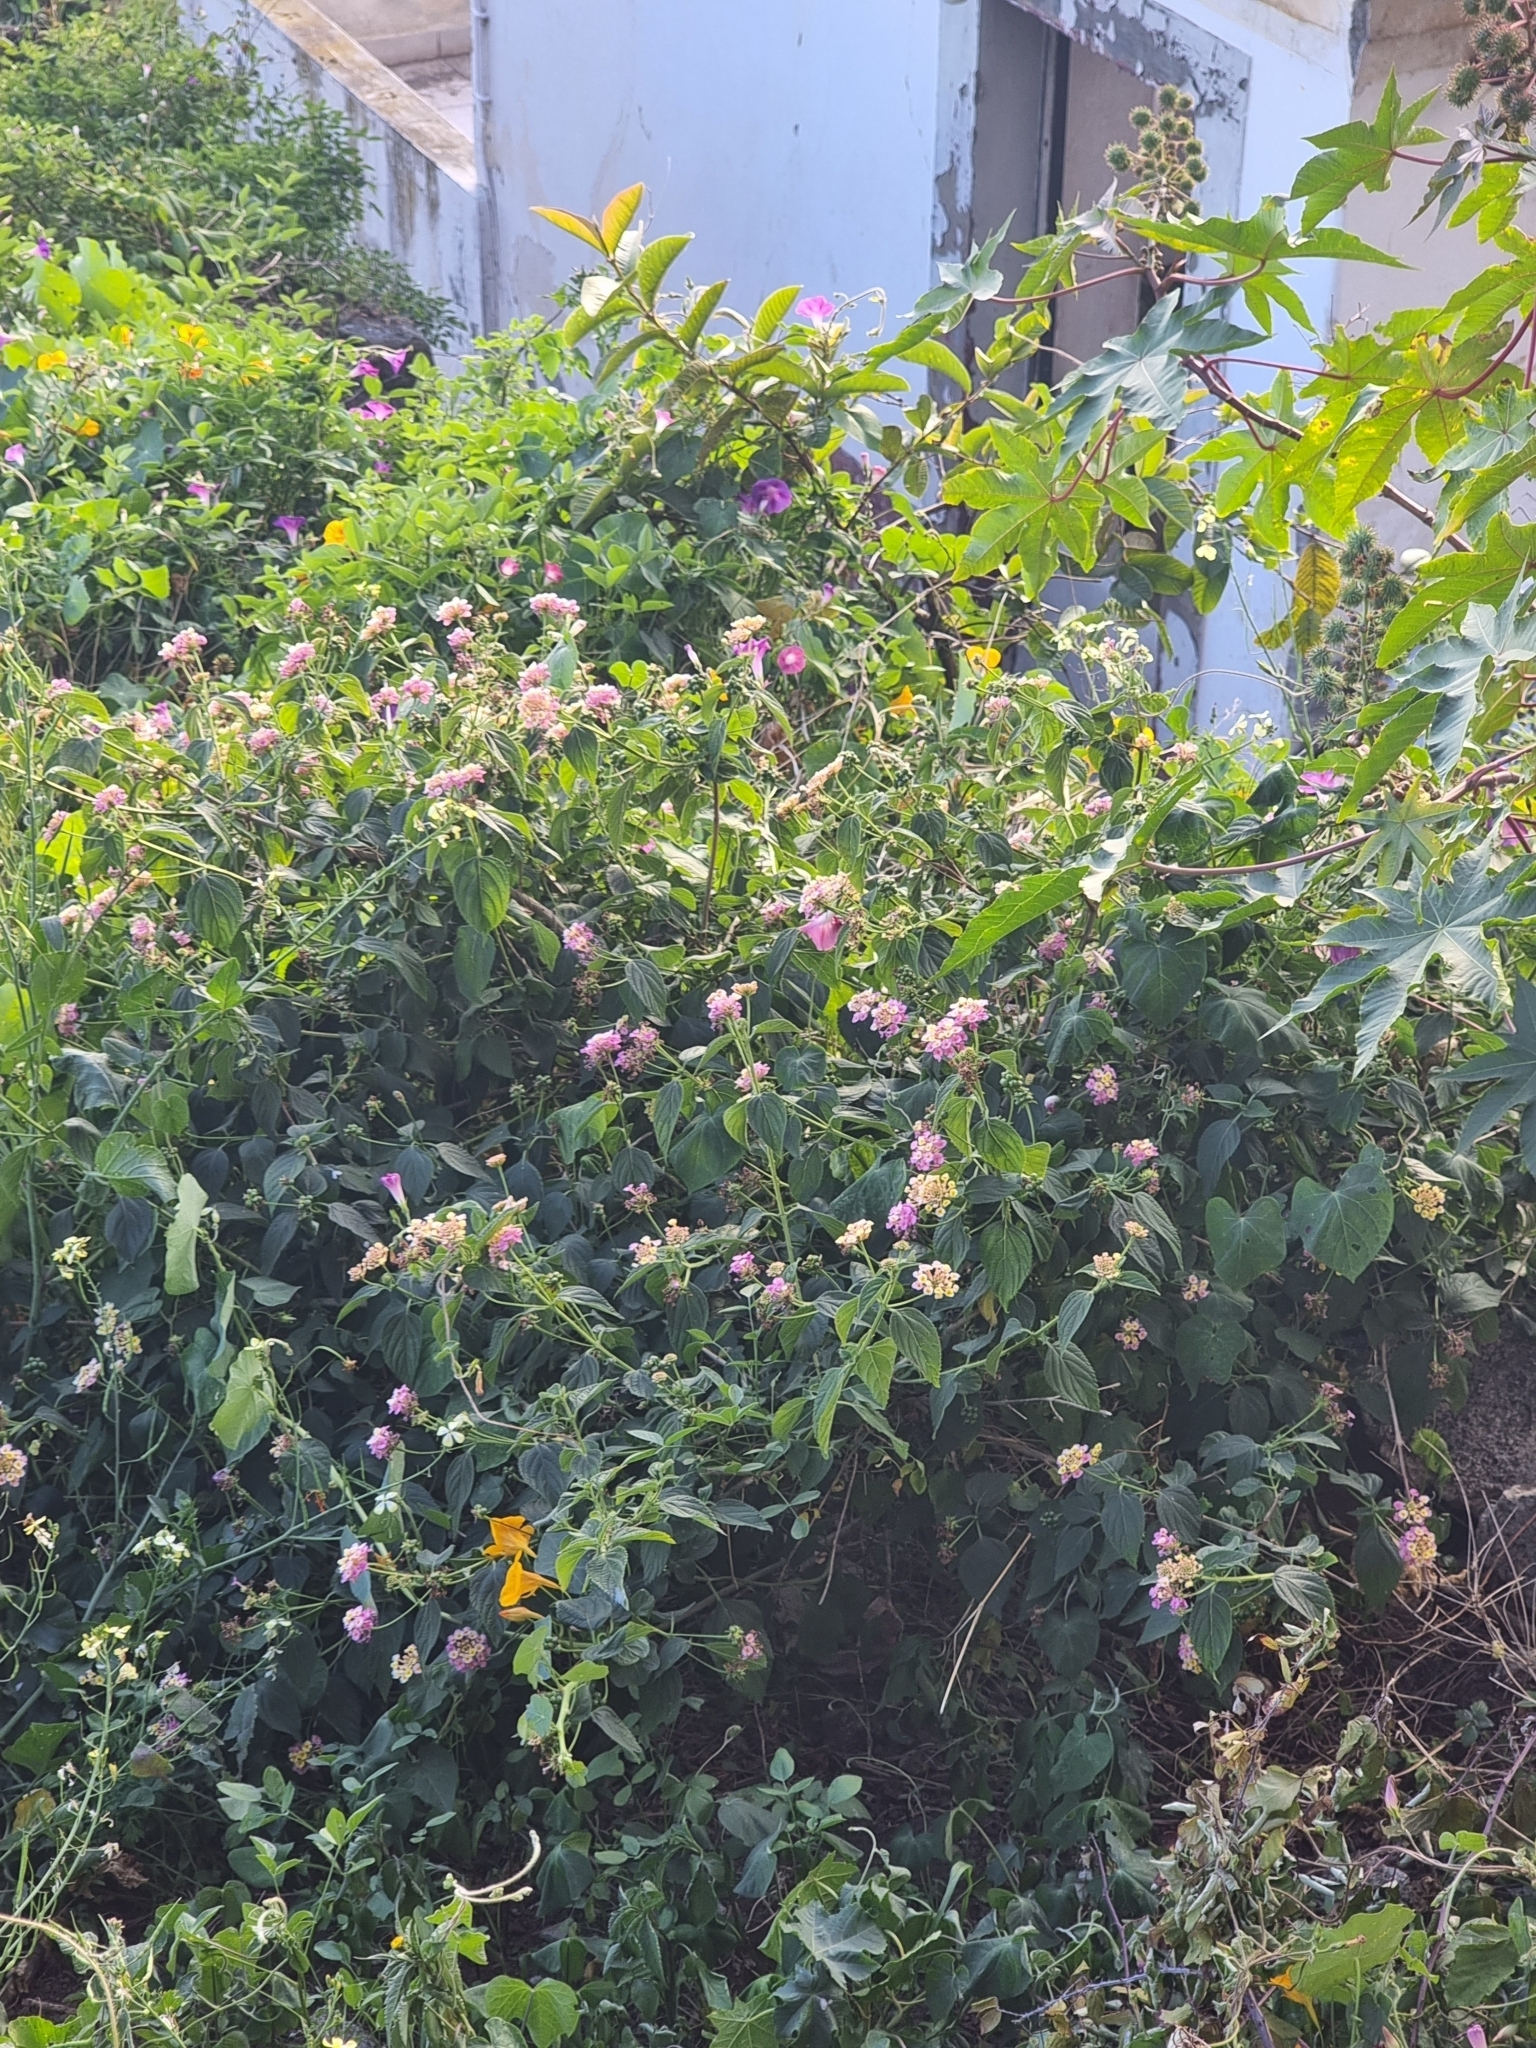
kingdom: Plantae
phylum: Tracheophyta
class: Magnoliopsida
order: Lamiales
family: Verbenaceae
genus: Lantana
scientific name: Lantana camara
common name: Lantana
